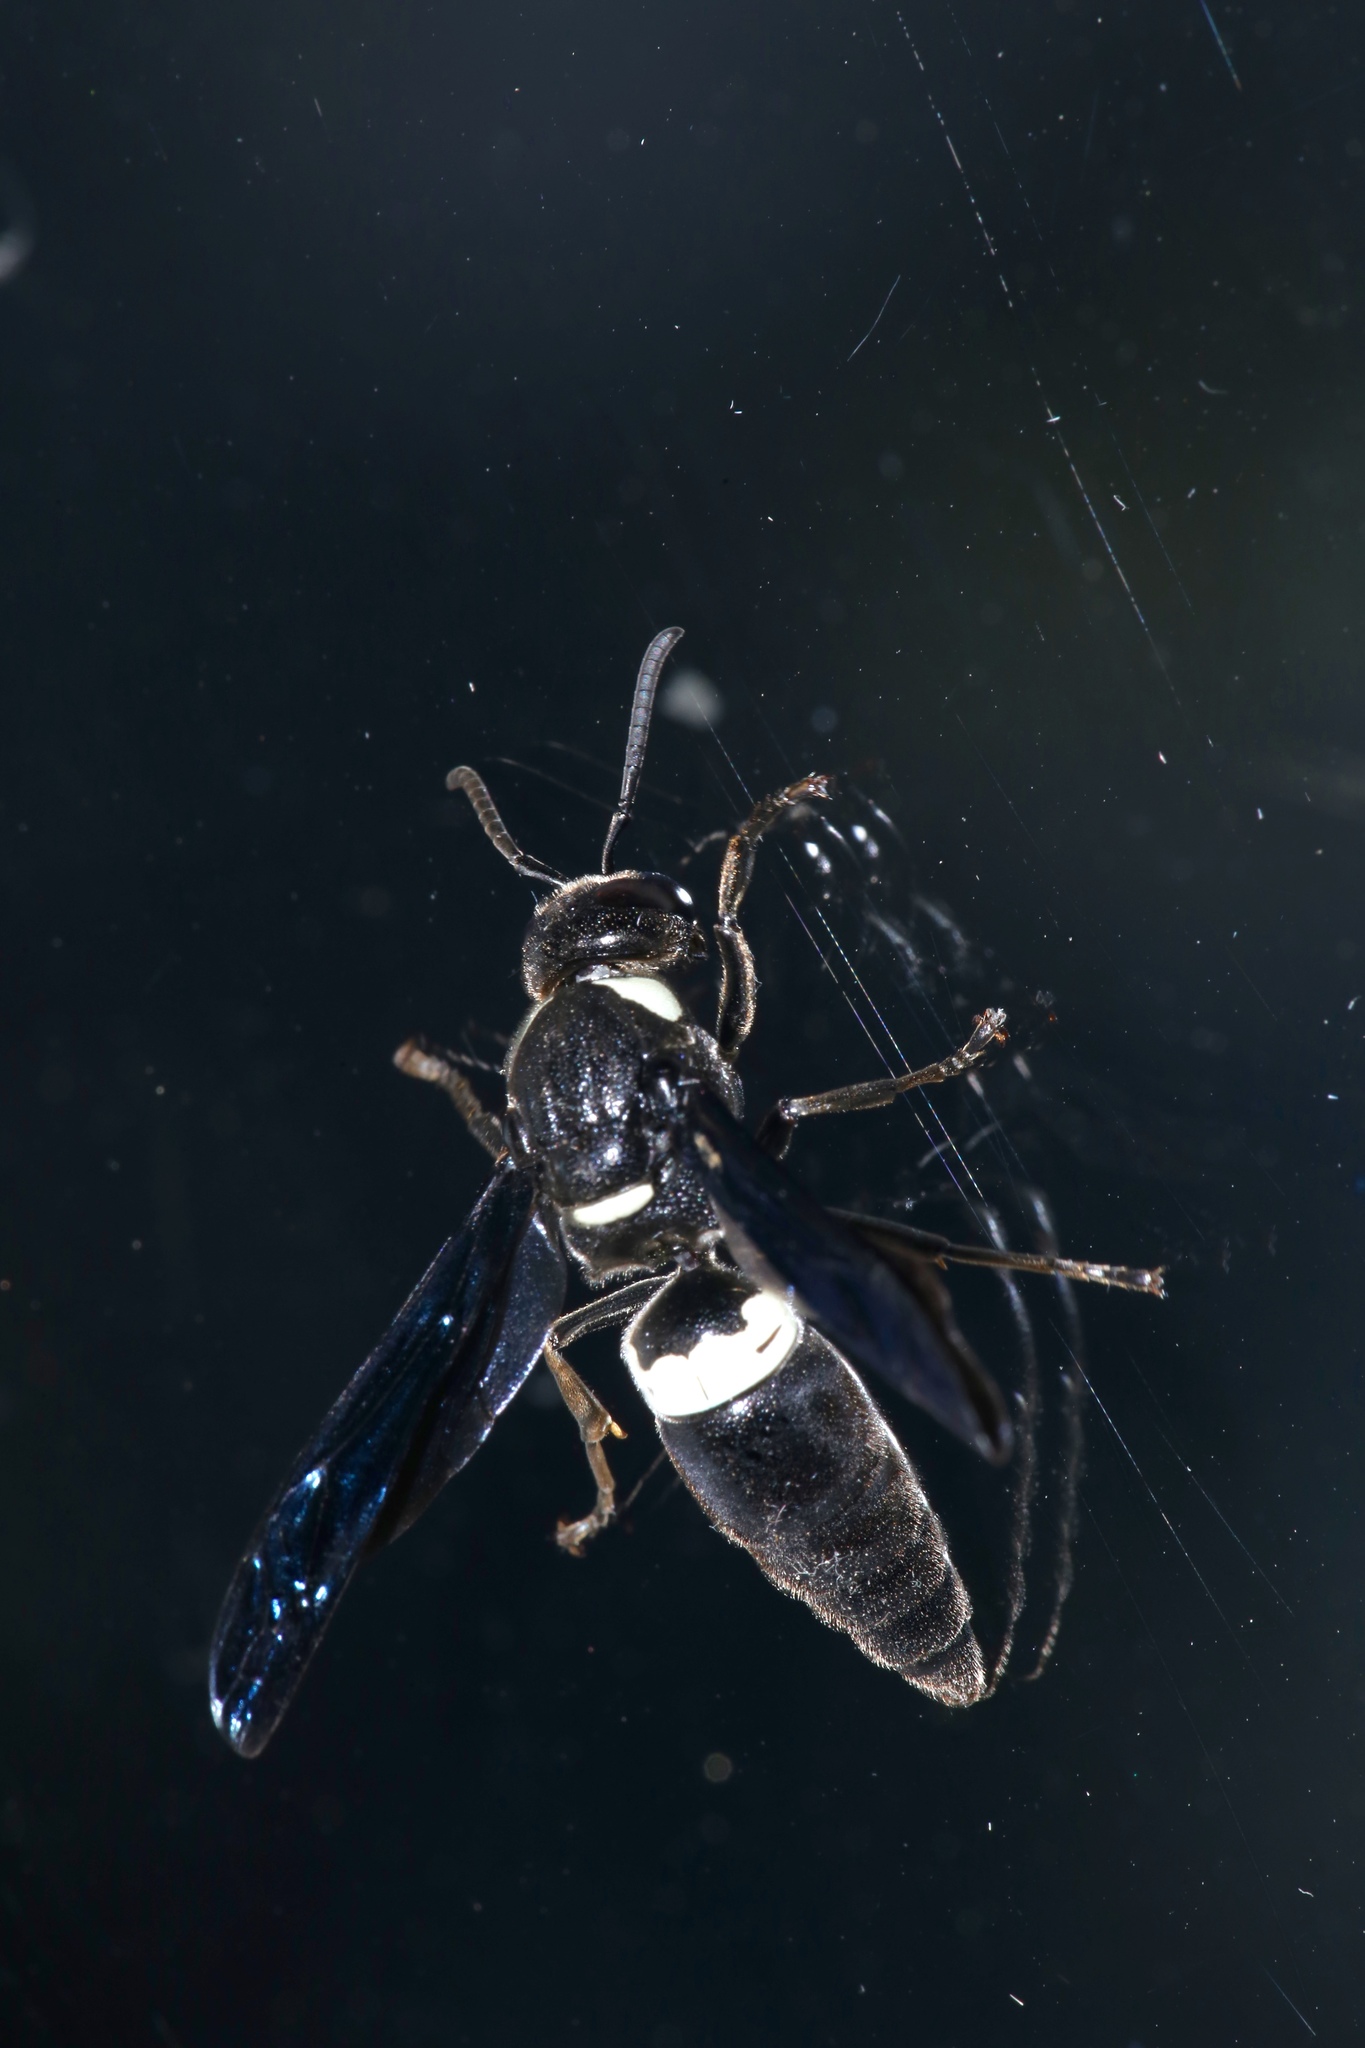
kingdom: Animalia
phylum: Arthropoda
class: Insecta
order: Hymenoptera
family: Eumenidae
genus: Monobia
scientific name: Monobia quadridens
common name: Four-toothed mason wasp
